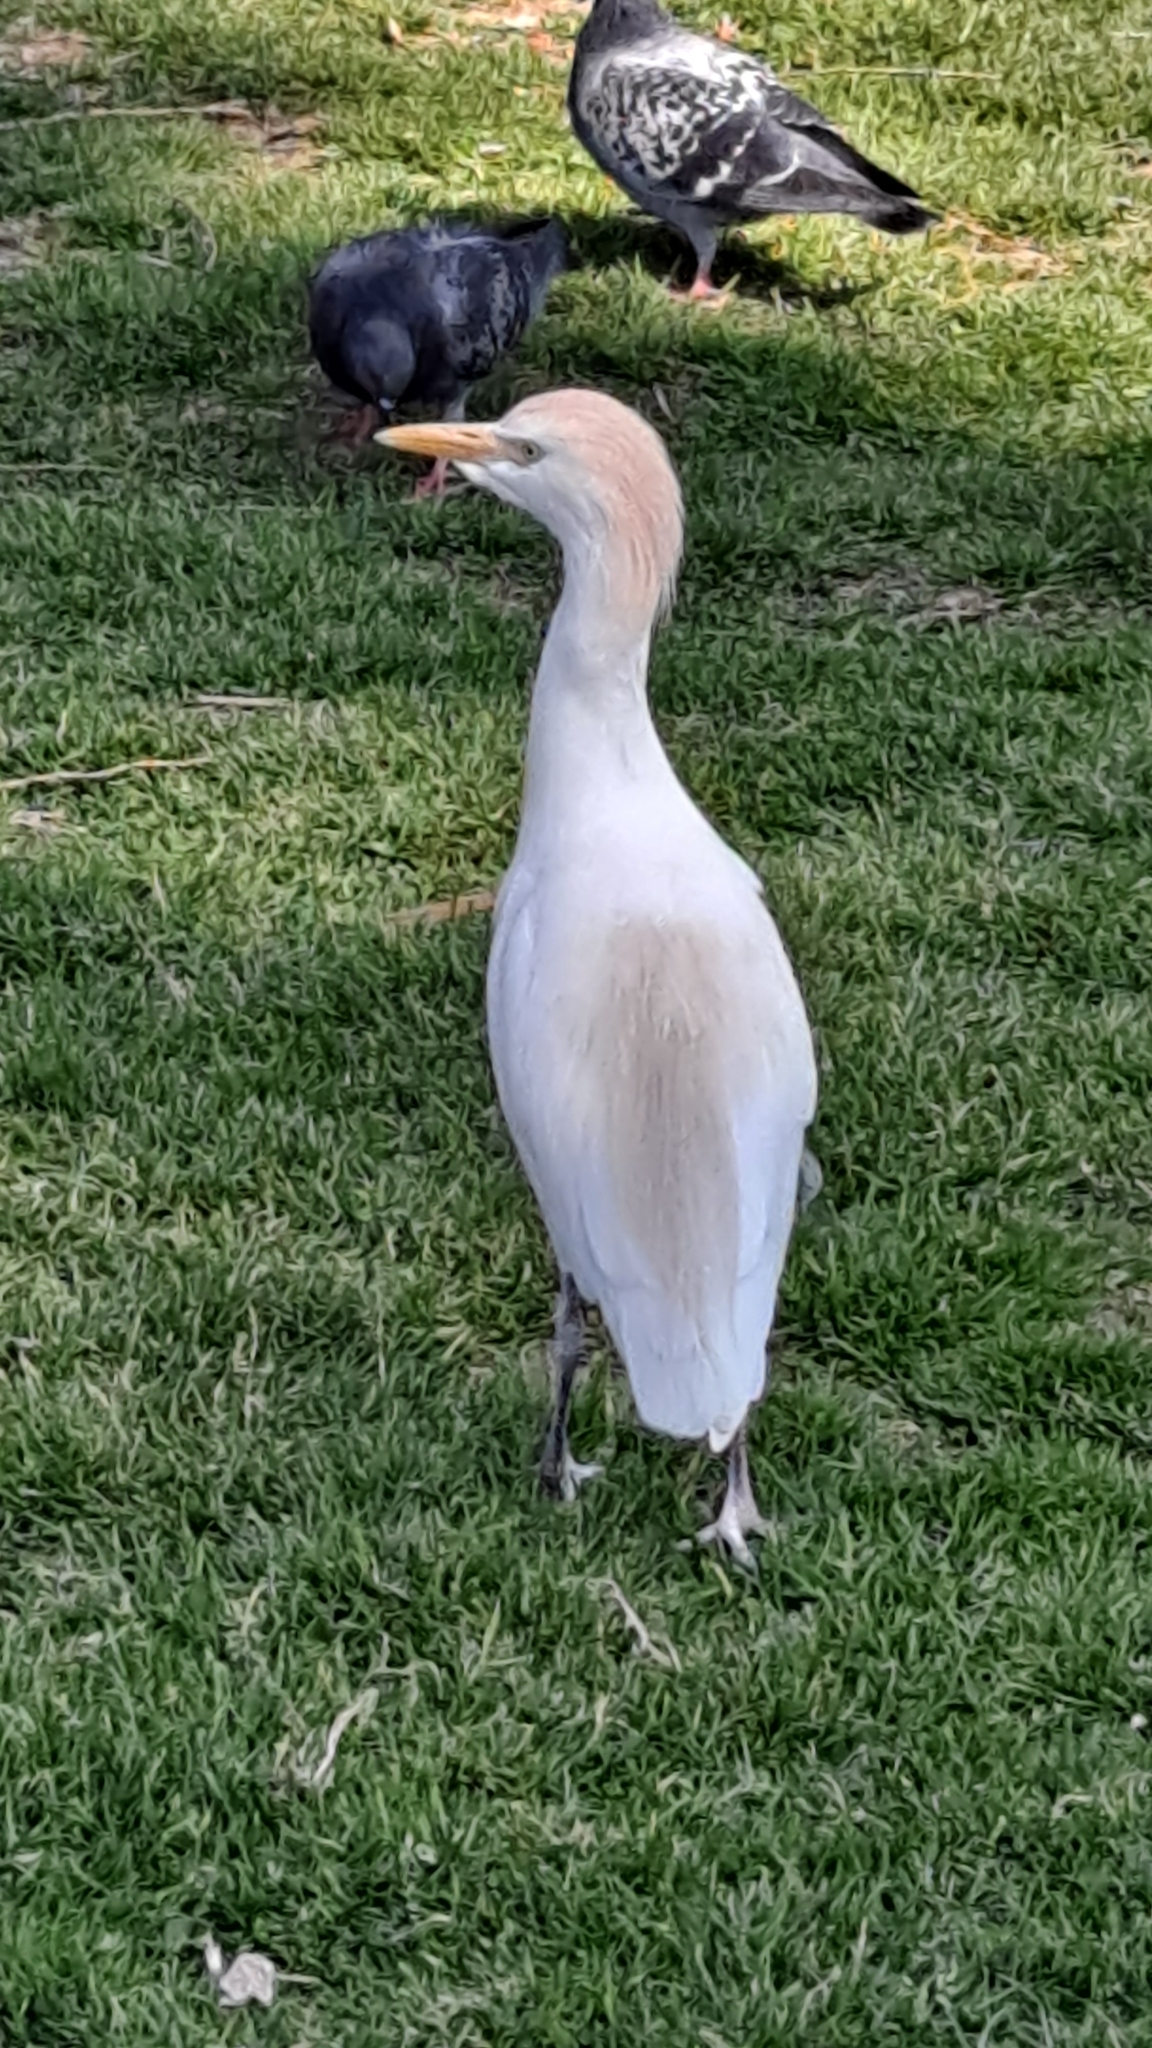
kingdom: Animalia
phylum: Chordata
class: Aves
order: Pelecaniformes
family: Ardeidae
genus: Bubulcus
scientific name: Bubulcus ibis
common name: Cattle egret
